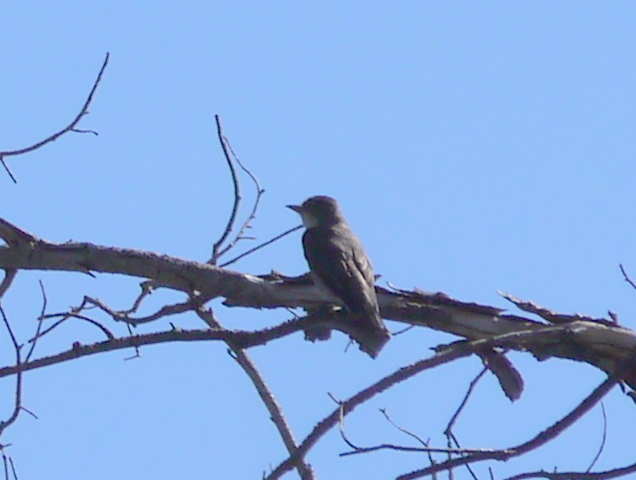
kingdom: Animalia
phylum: Chordata
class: Aves
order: Passeriformes
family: Tyrannidae
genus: Contopus
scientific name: Contopus cooperi
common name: Olive-sided flycatcher
